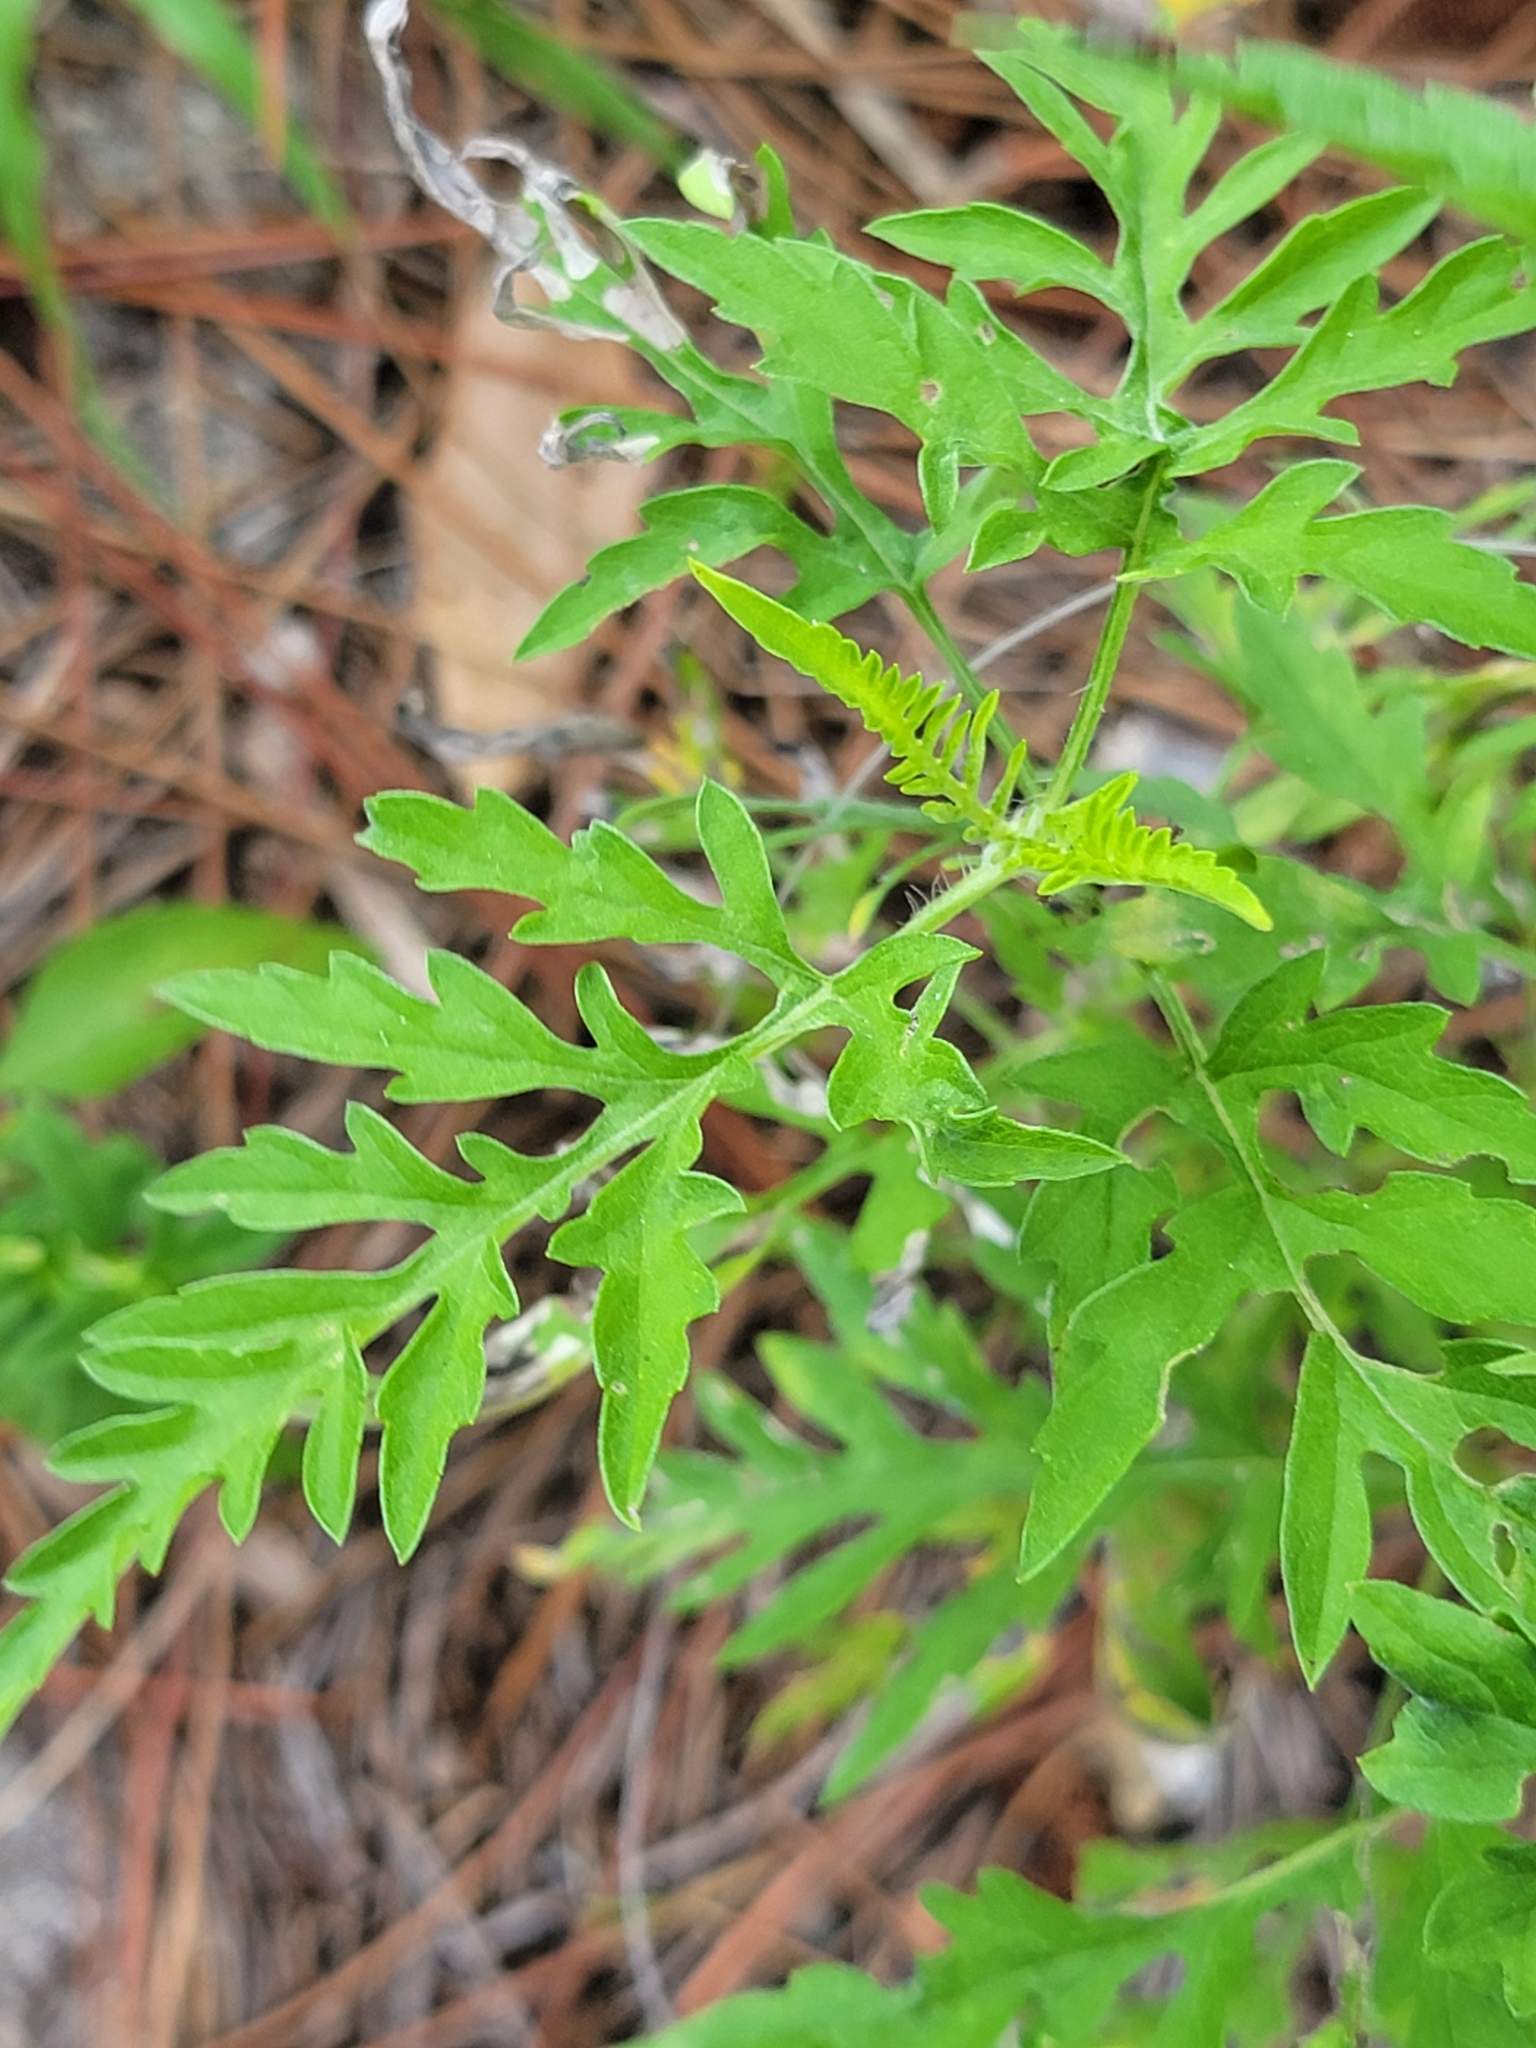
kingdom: Plantae
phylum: Tracheophyta
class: Magnoliopsida
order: Asterales
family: Asteraceae
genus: Ambrosia
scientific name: Ambrosia artemisiifolia
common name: Annual ragweed
